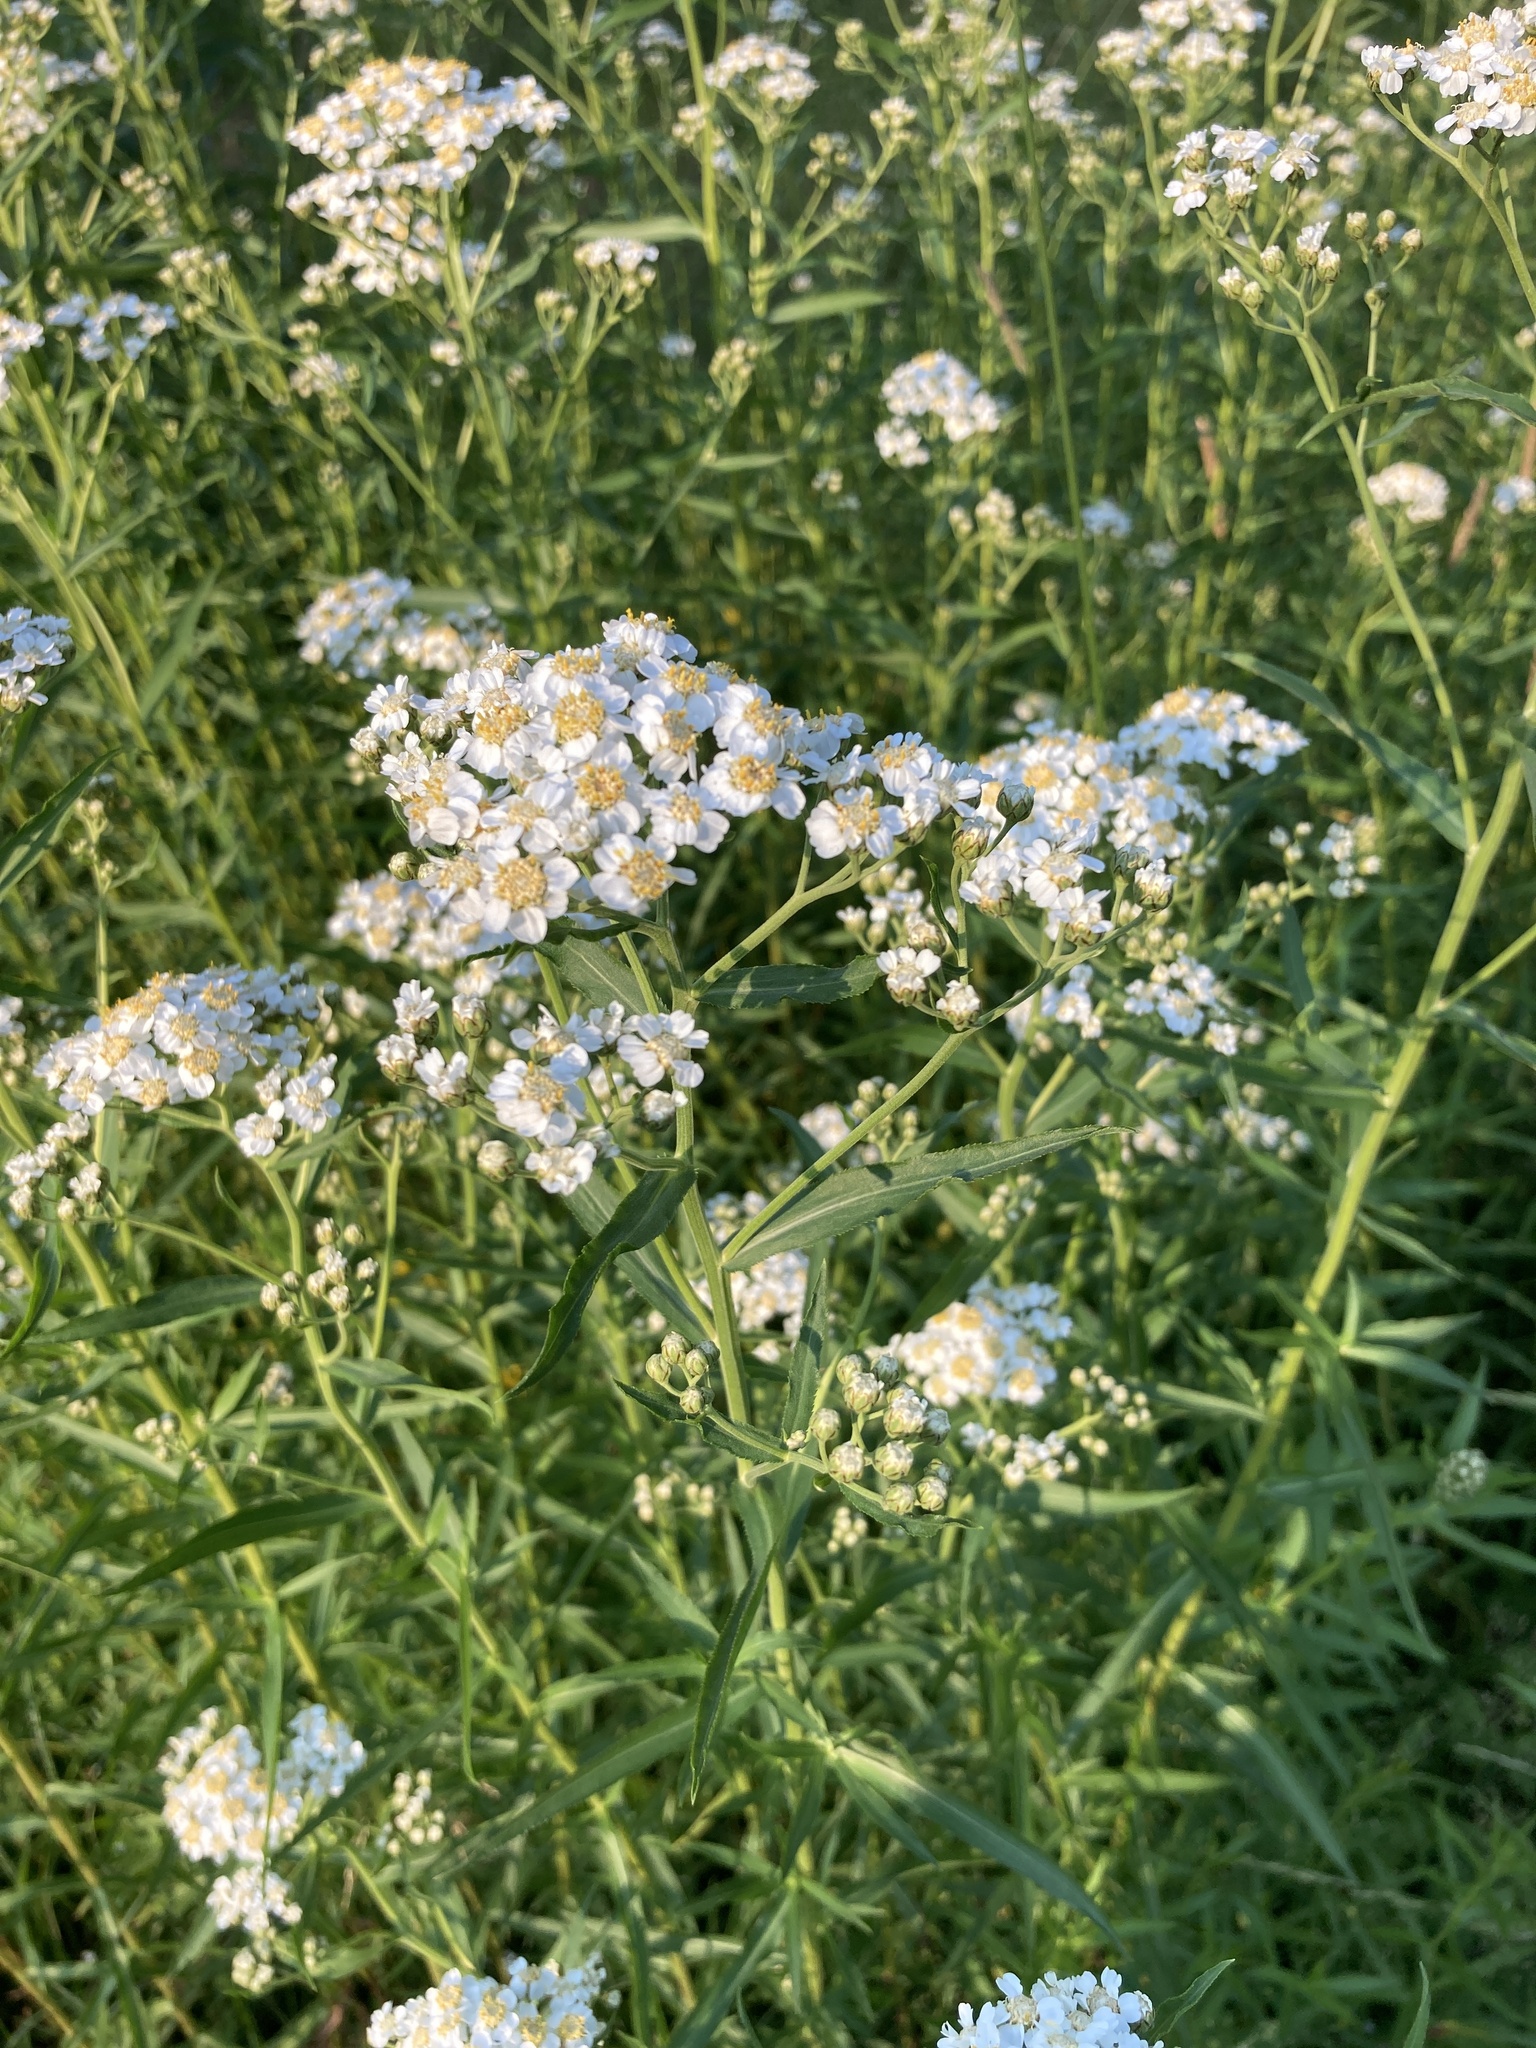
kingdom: Plantae
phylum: Tracheophyta
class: Magnoliopsida
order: Asterales
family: Asteraceae
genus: Achillea
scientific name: Achillea salicifolia
